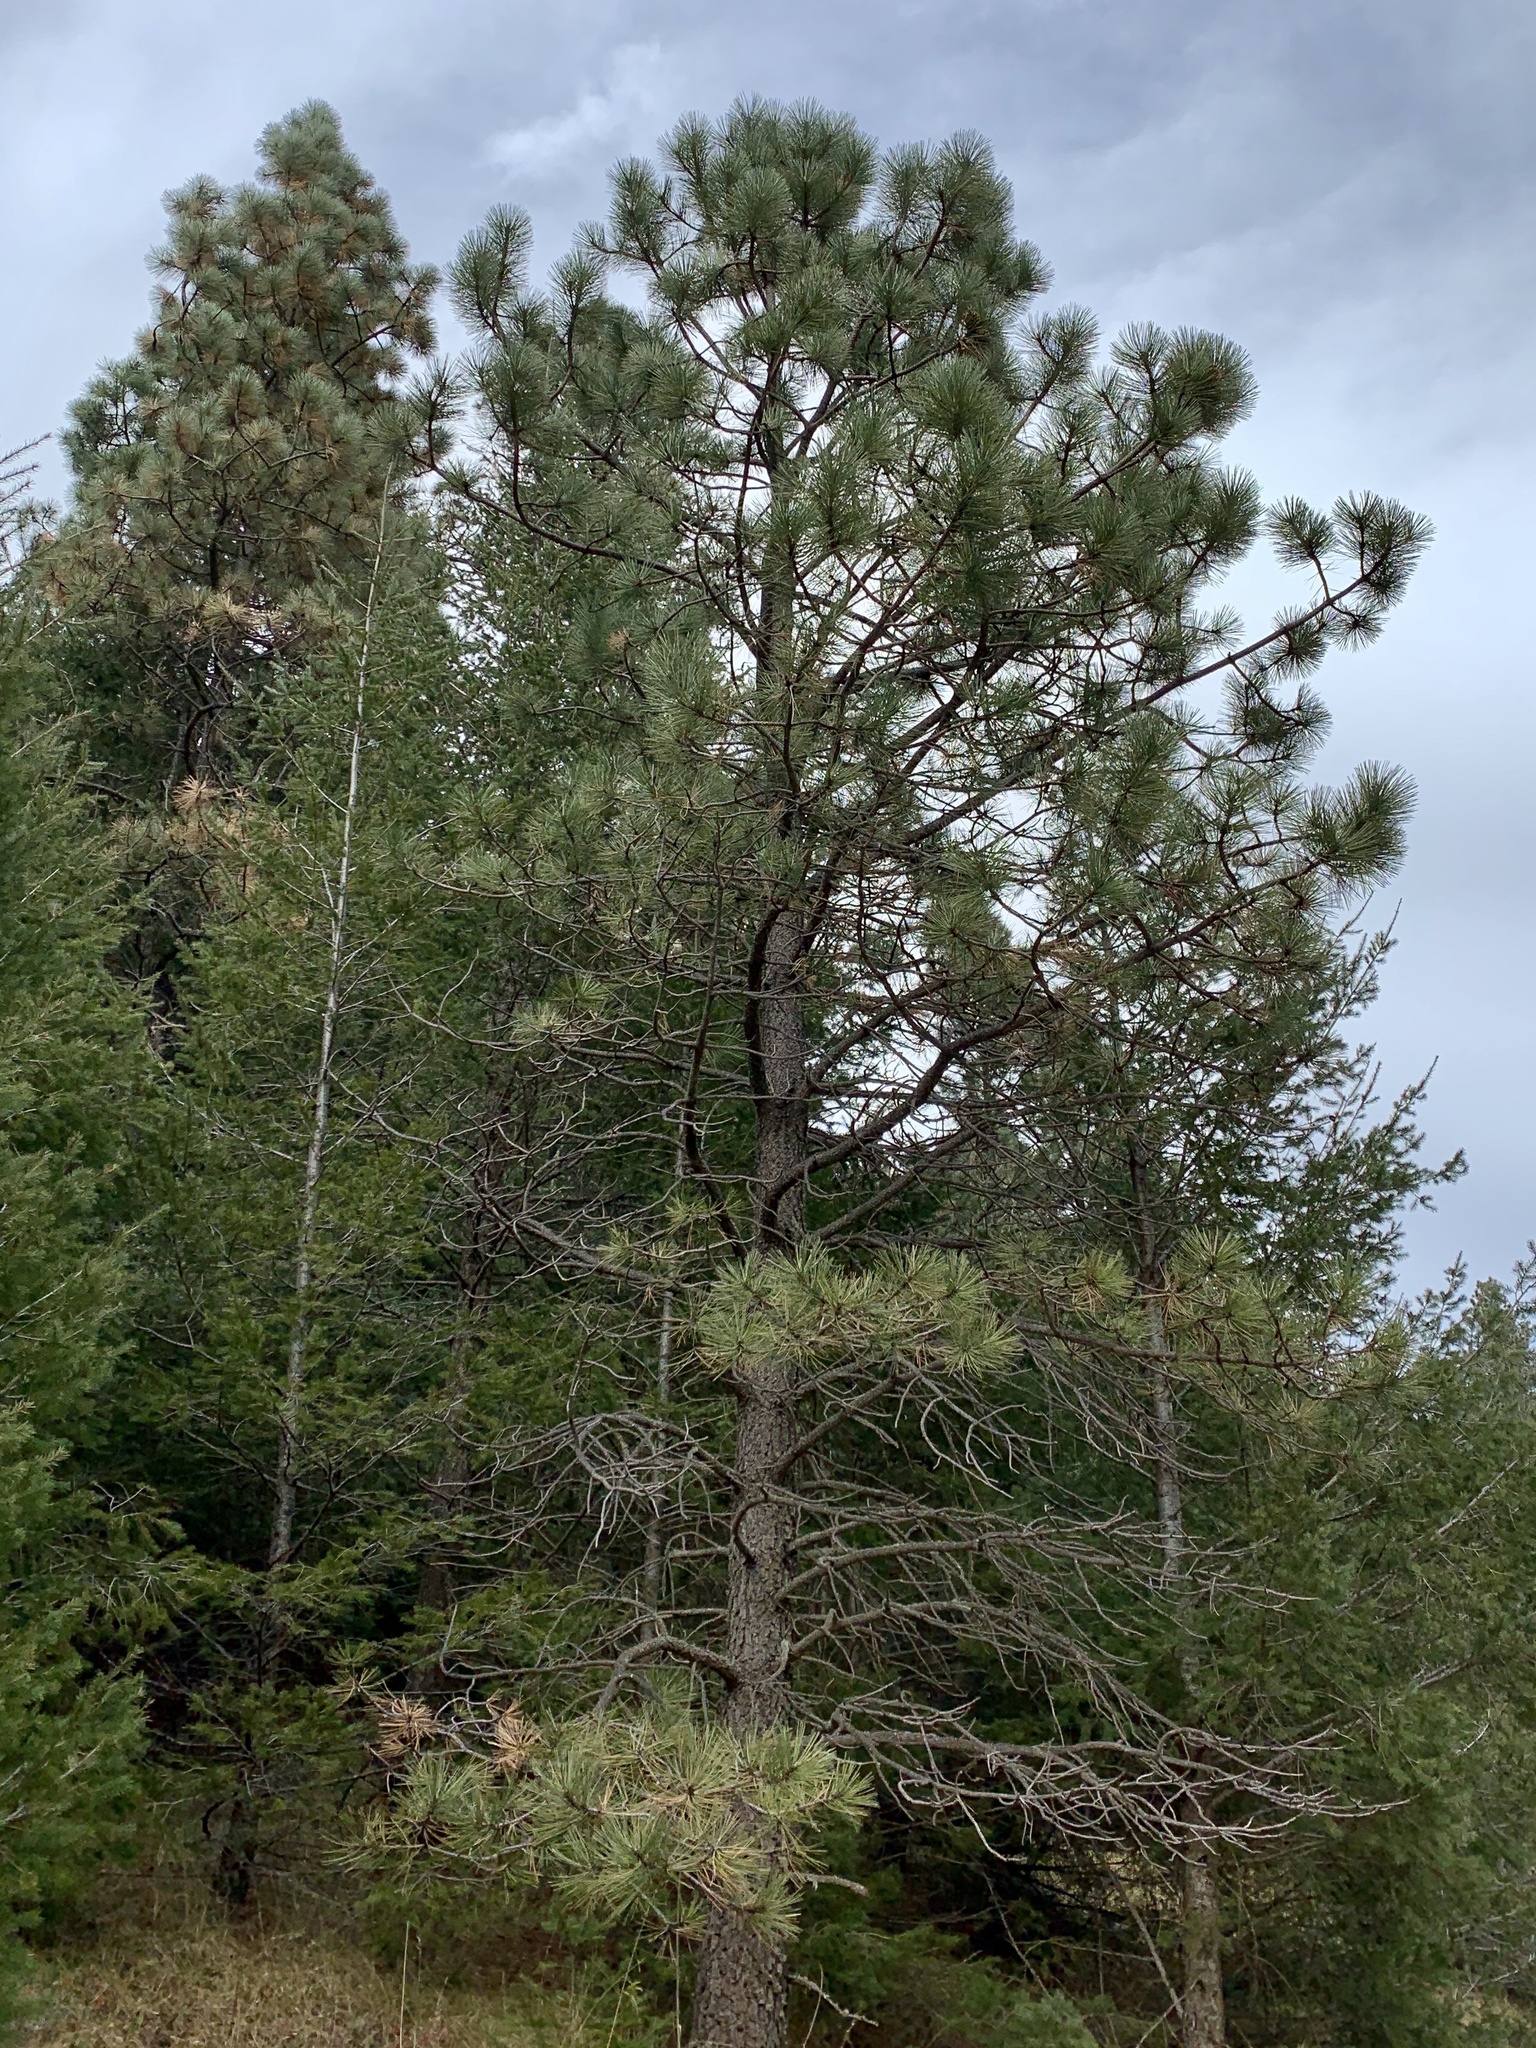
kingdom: Plantae
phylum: Tracheophyta
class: Pinopsida
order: Pinales
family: Pinaceae
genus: Pinus
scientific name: Pinus ponderosa
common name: Western yellow-pine
